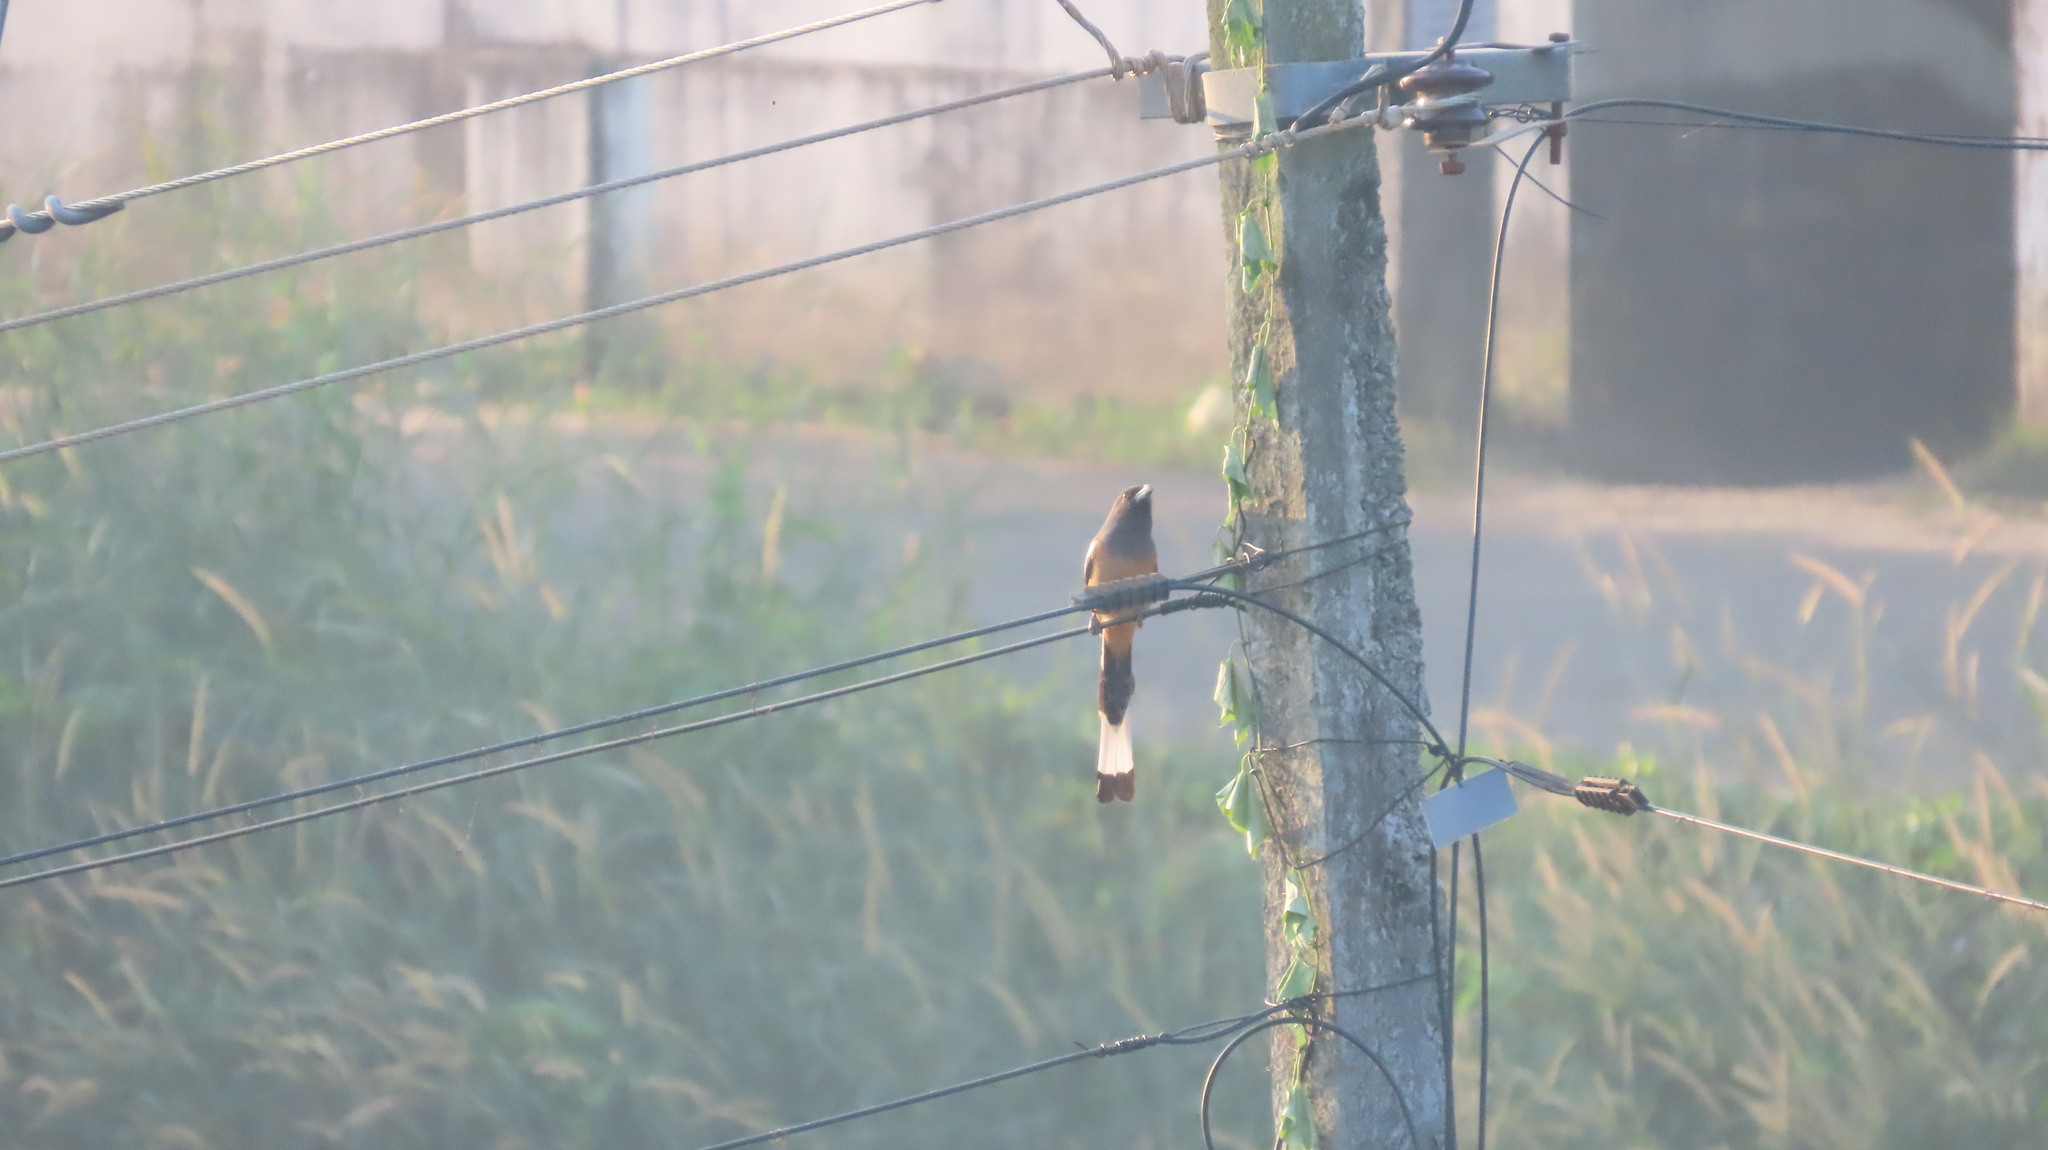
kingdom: Animalia
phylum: Chordata
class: Aves
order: Passeriformes
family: Corvidae
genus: Dendrocitta
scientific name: Dendrocitta vagabunda
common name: Rufous treepie
